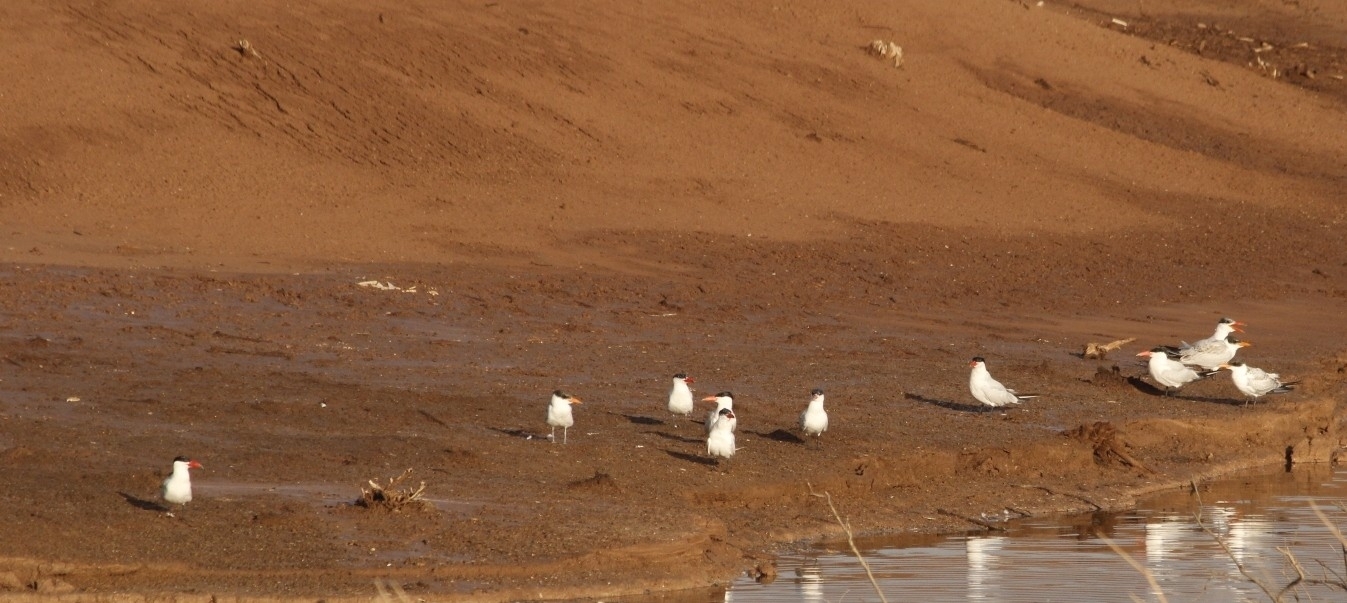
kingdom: Animalia
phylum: Chordata
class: Aves
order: Charadriiformes
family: Laridae
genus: Hydroprogne
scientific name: Hydroprogne caspia
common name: Caspian tern
